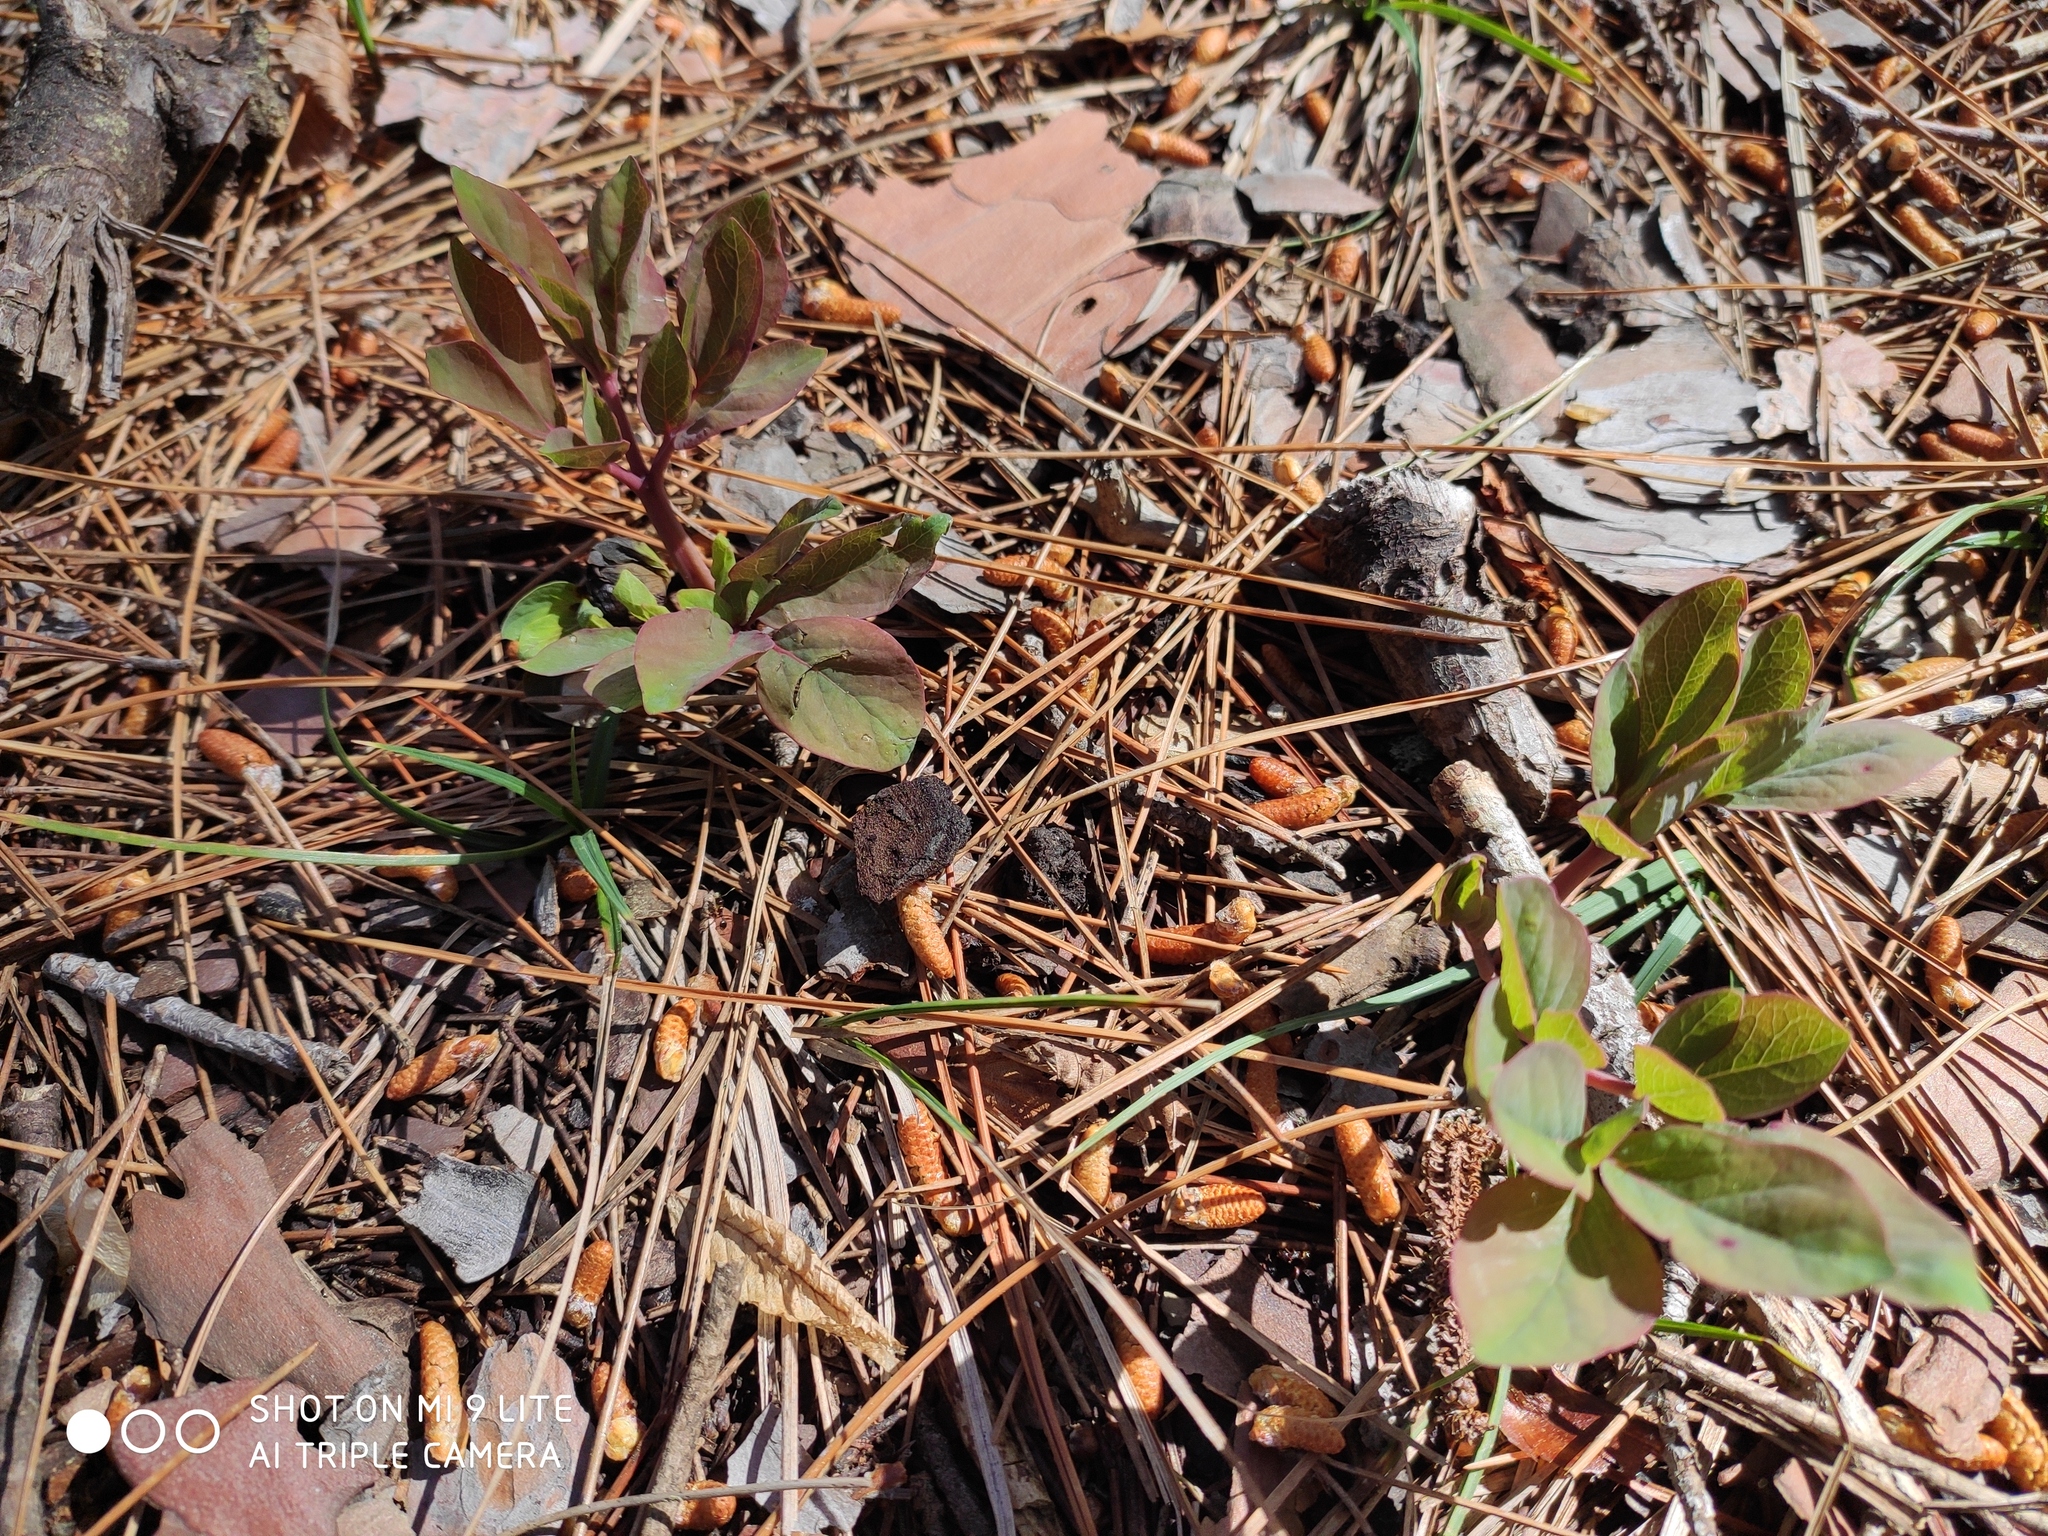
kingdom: Plantae
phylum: Tracheophyta
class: Magnoliopsida
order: Saxifragales
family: Paeoniaceae
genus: Paeonia
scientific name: Paeonia caucasica
